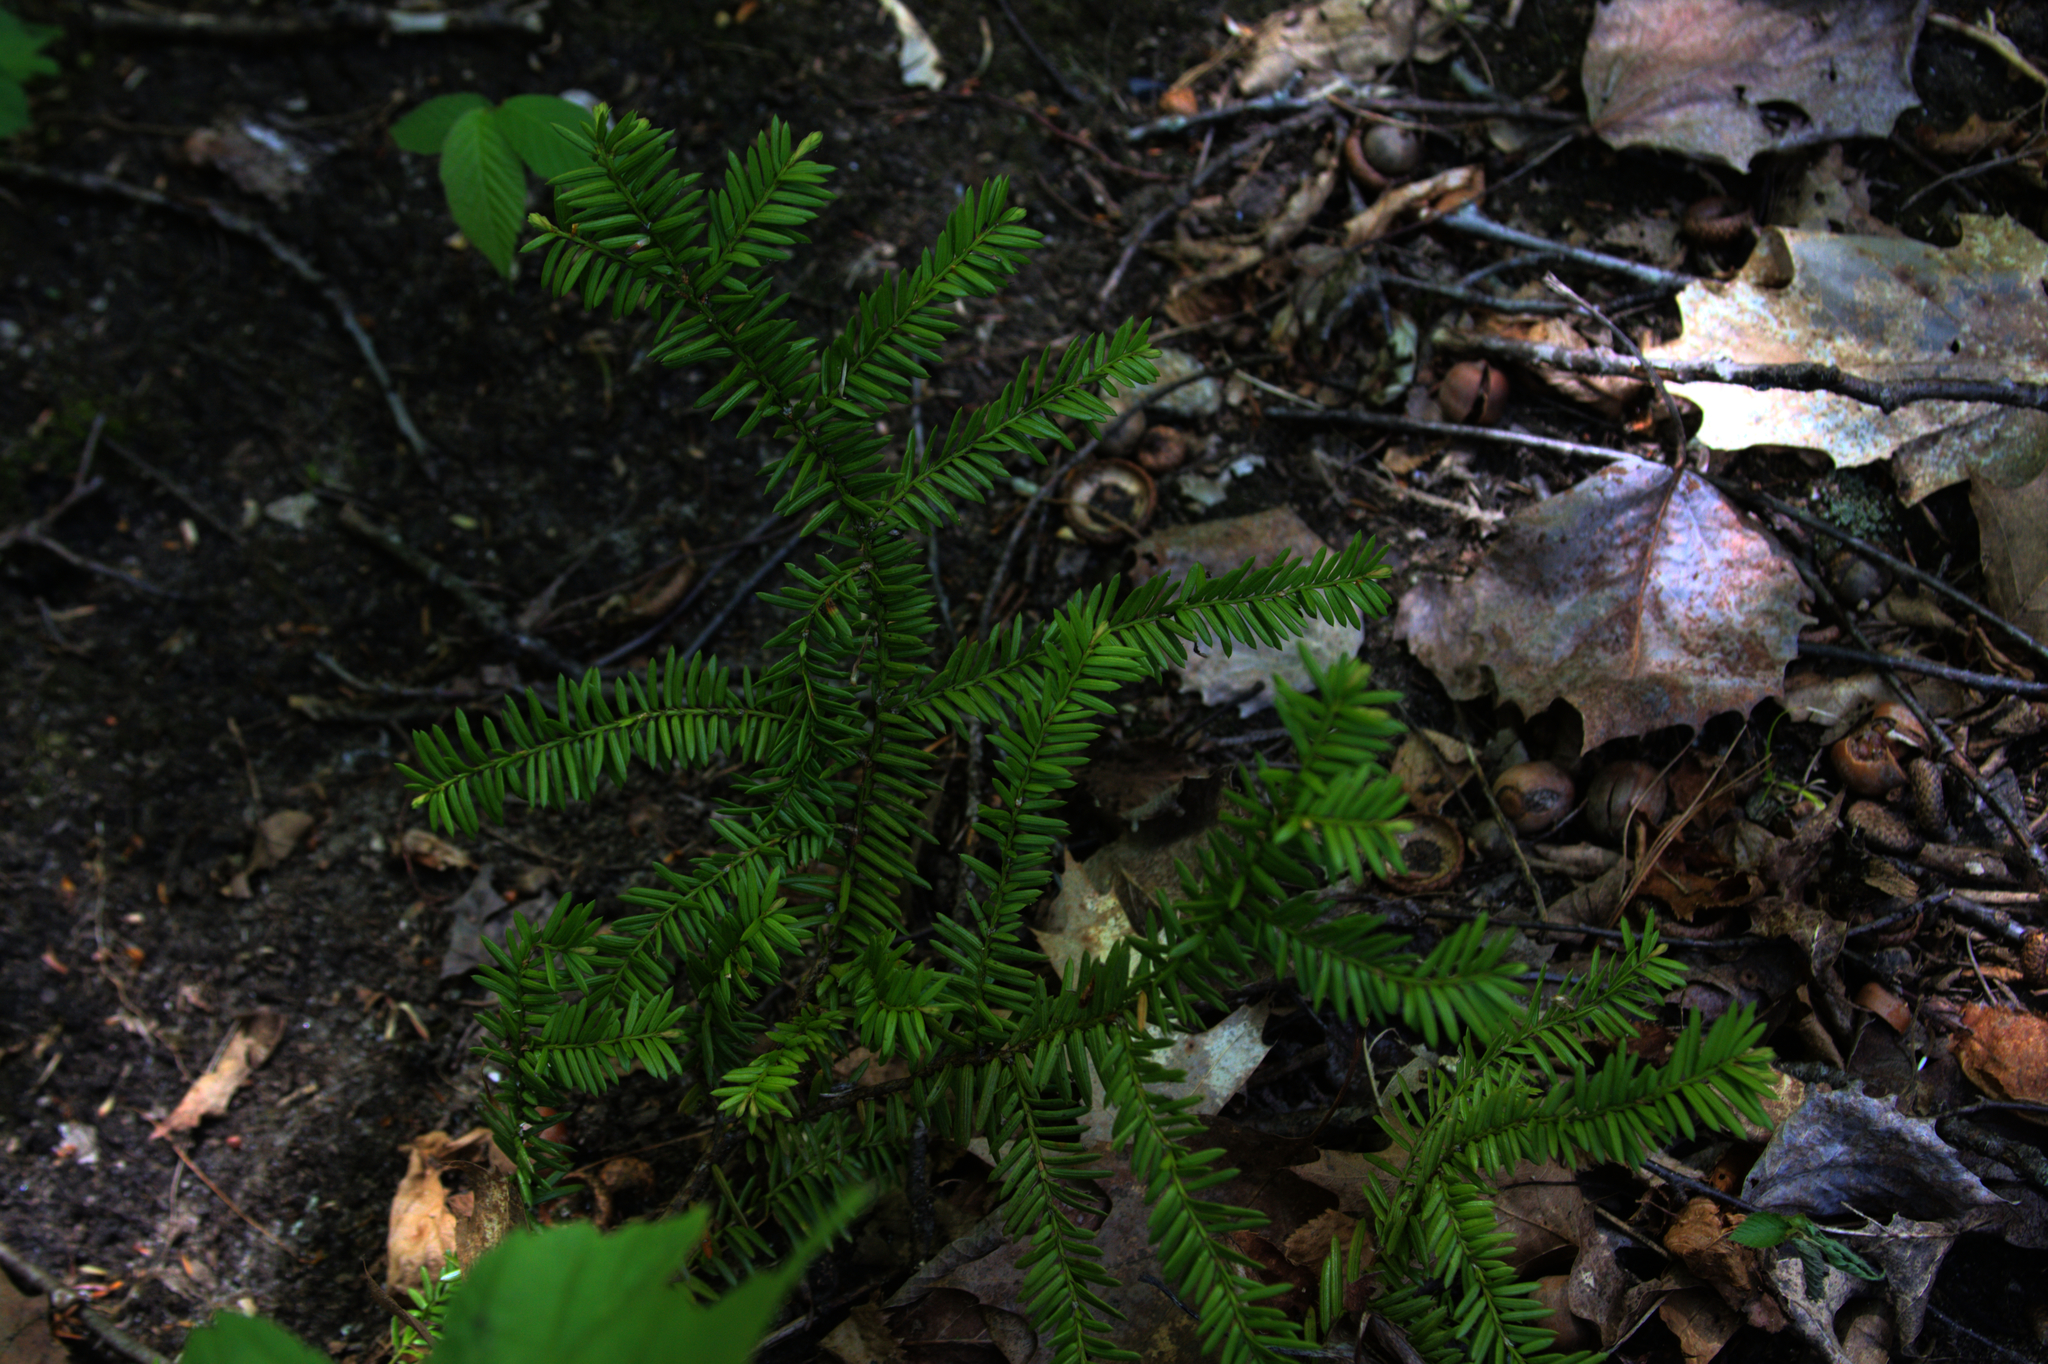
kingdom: Plantae
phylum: Tracheophyta
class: Pinopsida
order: Pinales
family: Taxaceae
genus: Taxus
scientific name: Taxus canadensis
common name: American yew
